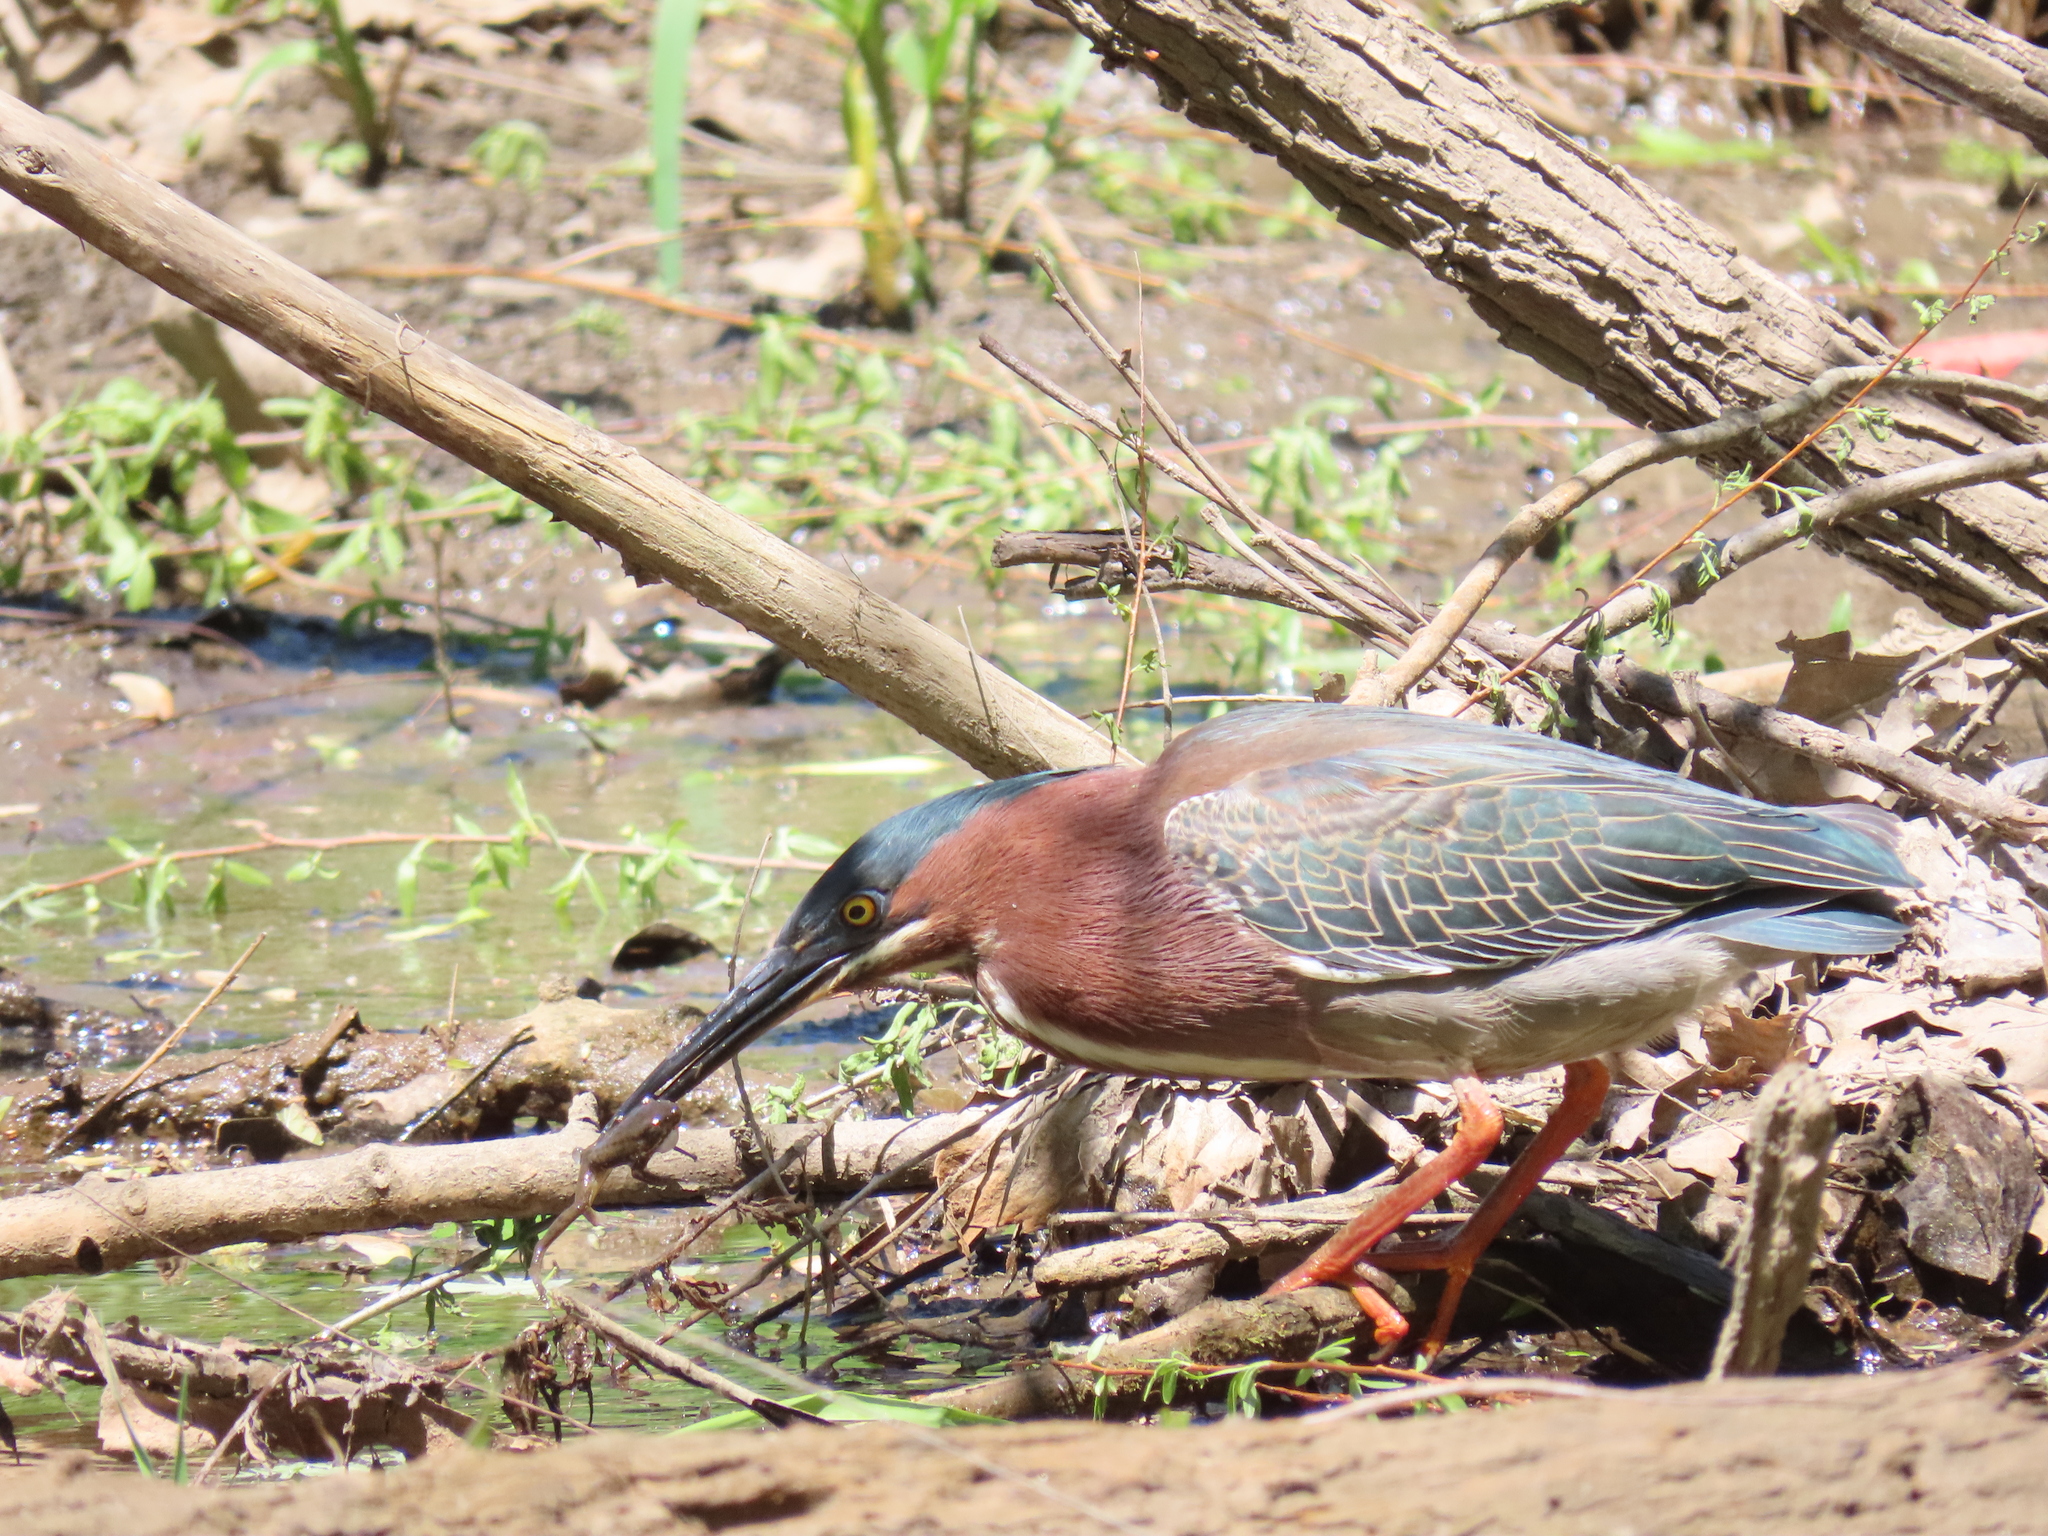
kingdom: Animalia
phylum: Chordata
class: Aves
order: Pelecaniformes
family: Ardeidae
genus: Butorides
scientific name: Butorides virescens
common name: Green heron
